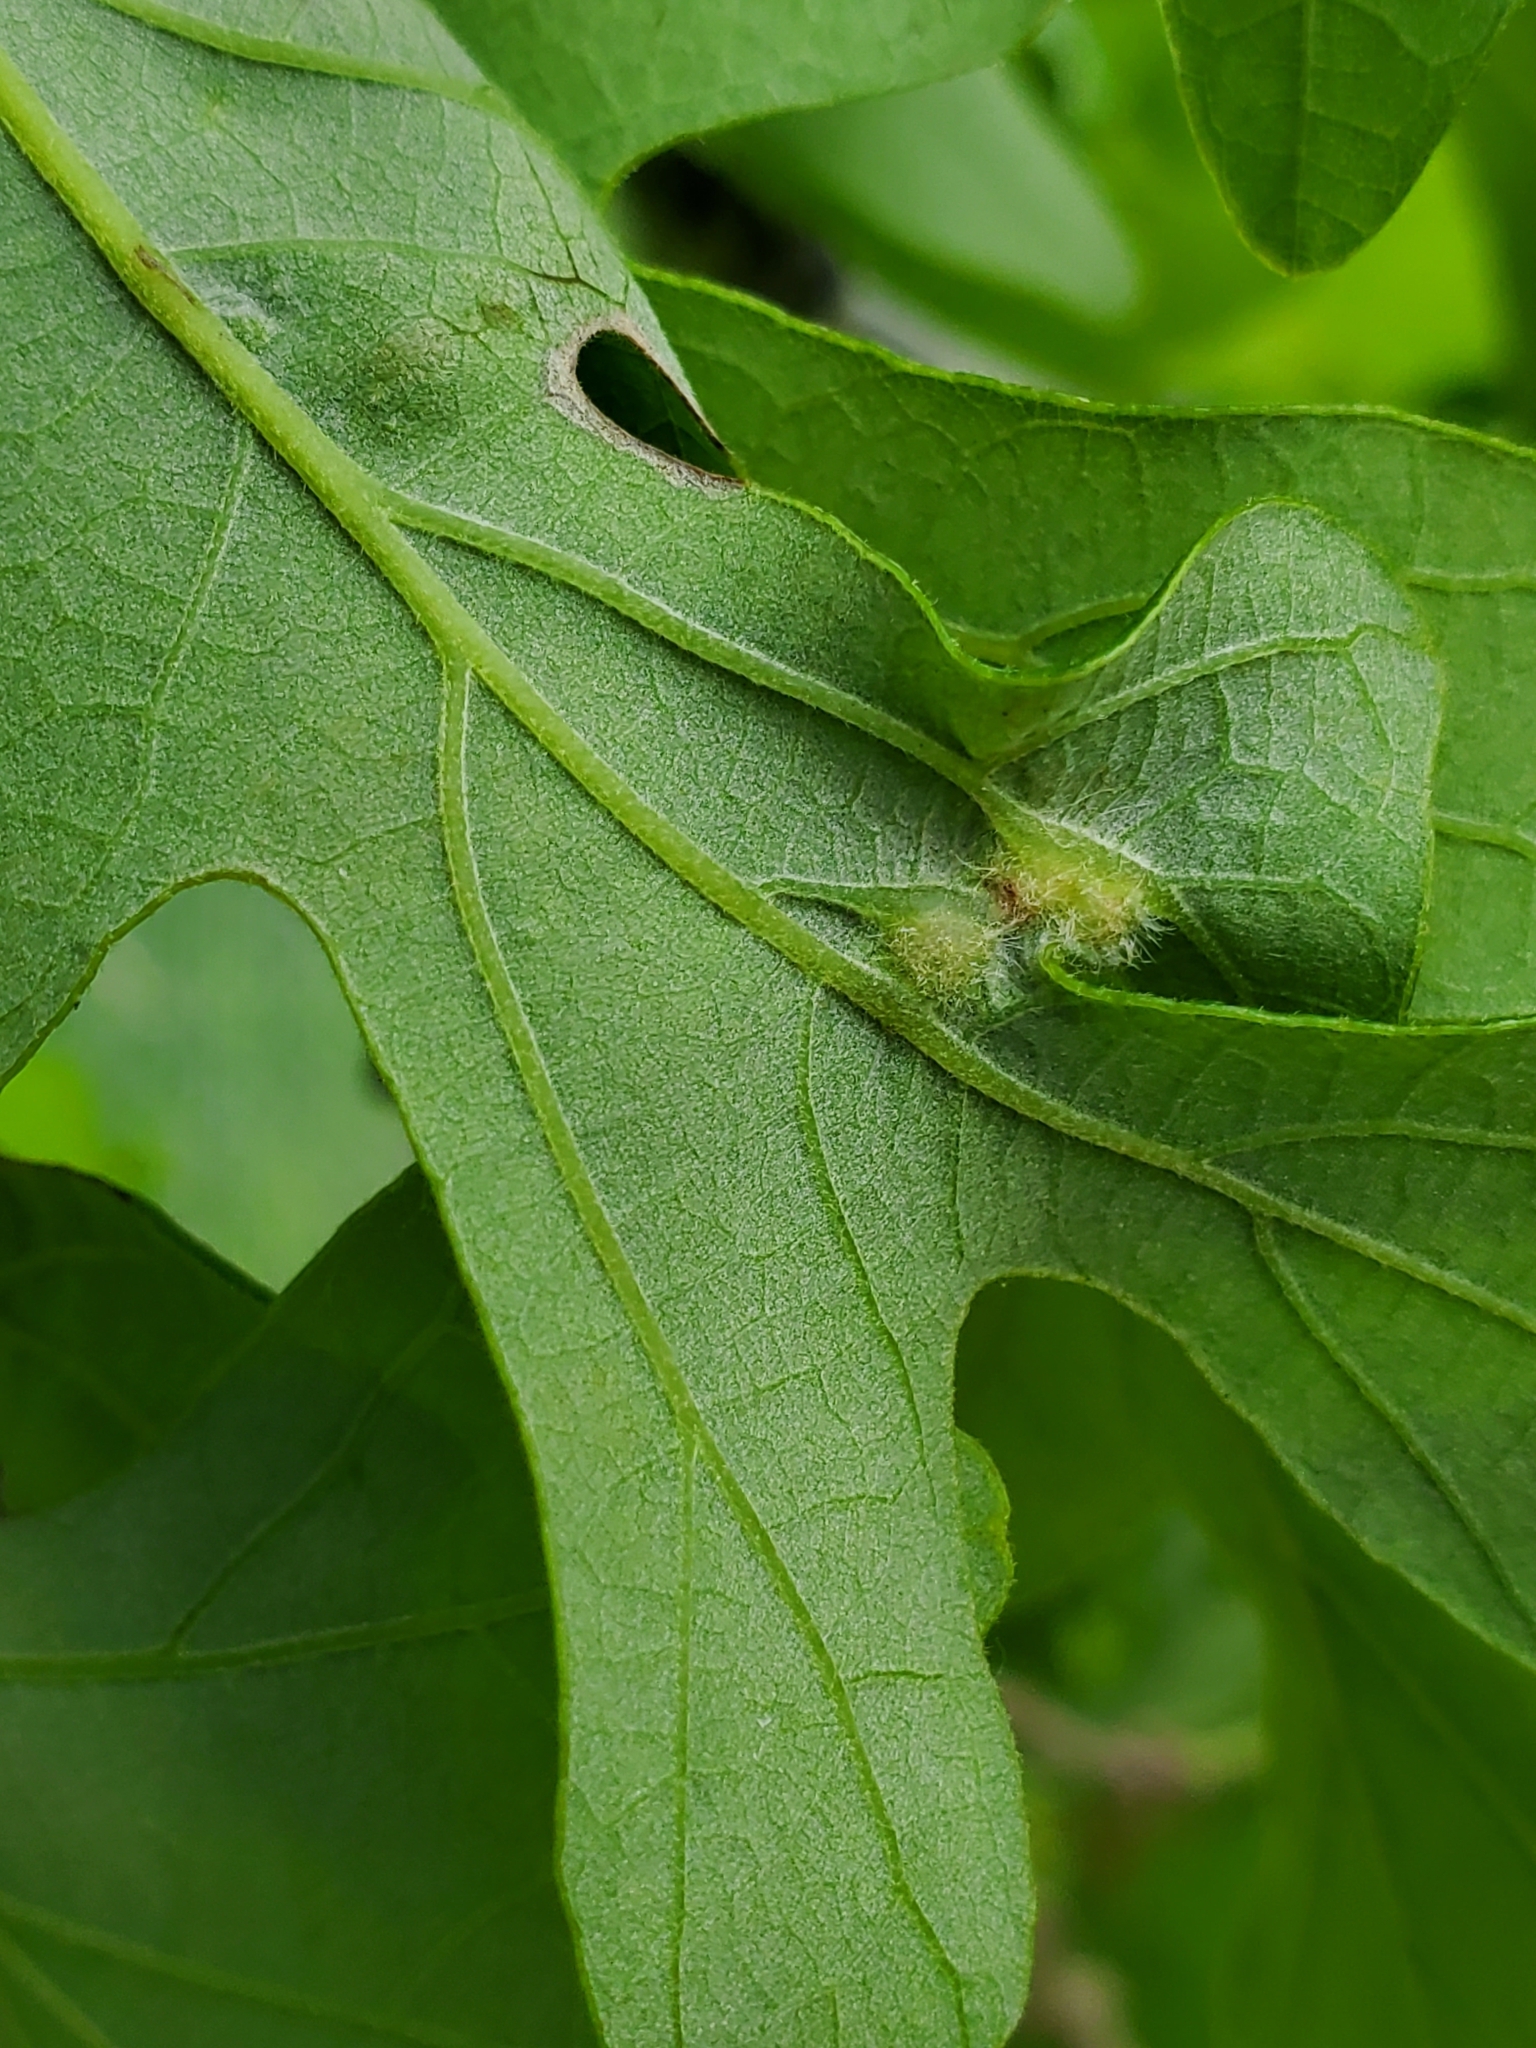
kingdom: Animalia
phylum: Arthropoda
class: Insecta
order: Hymenoptera
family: Cynipidae
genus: Neuroterus
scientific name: Neuroterus
